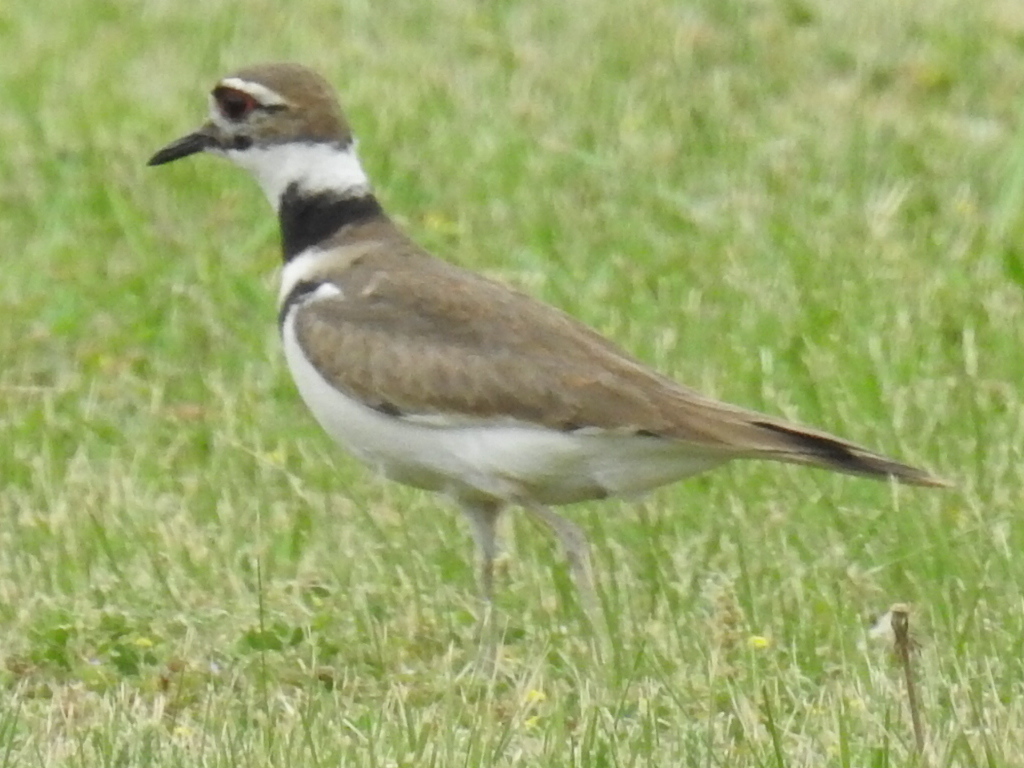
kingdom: Animalia
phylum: Chordata
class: Aves
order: Charadriiformes
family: Charadriidae
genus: Charadrius
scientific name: Charadrius vociferus
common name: Killdeer
